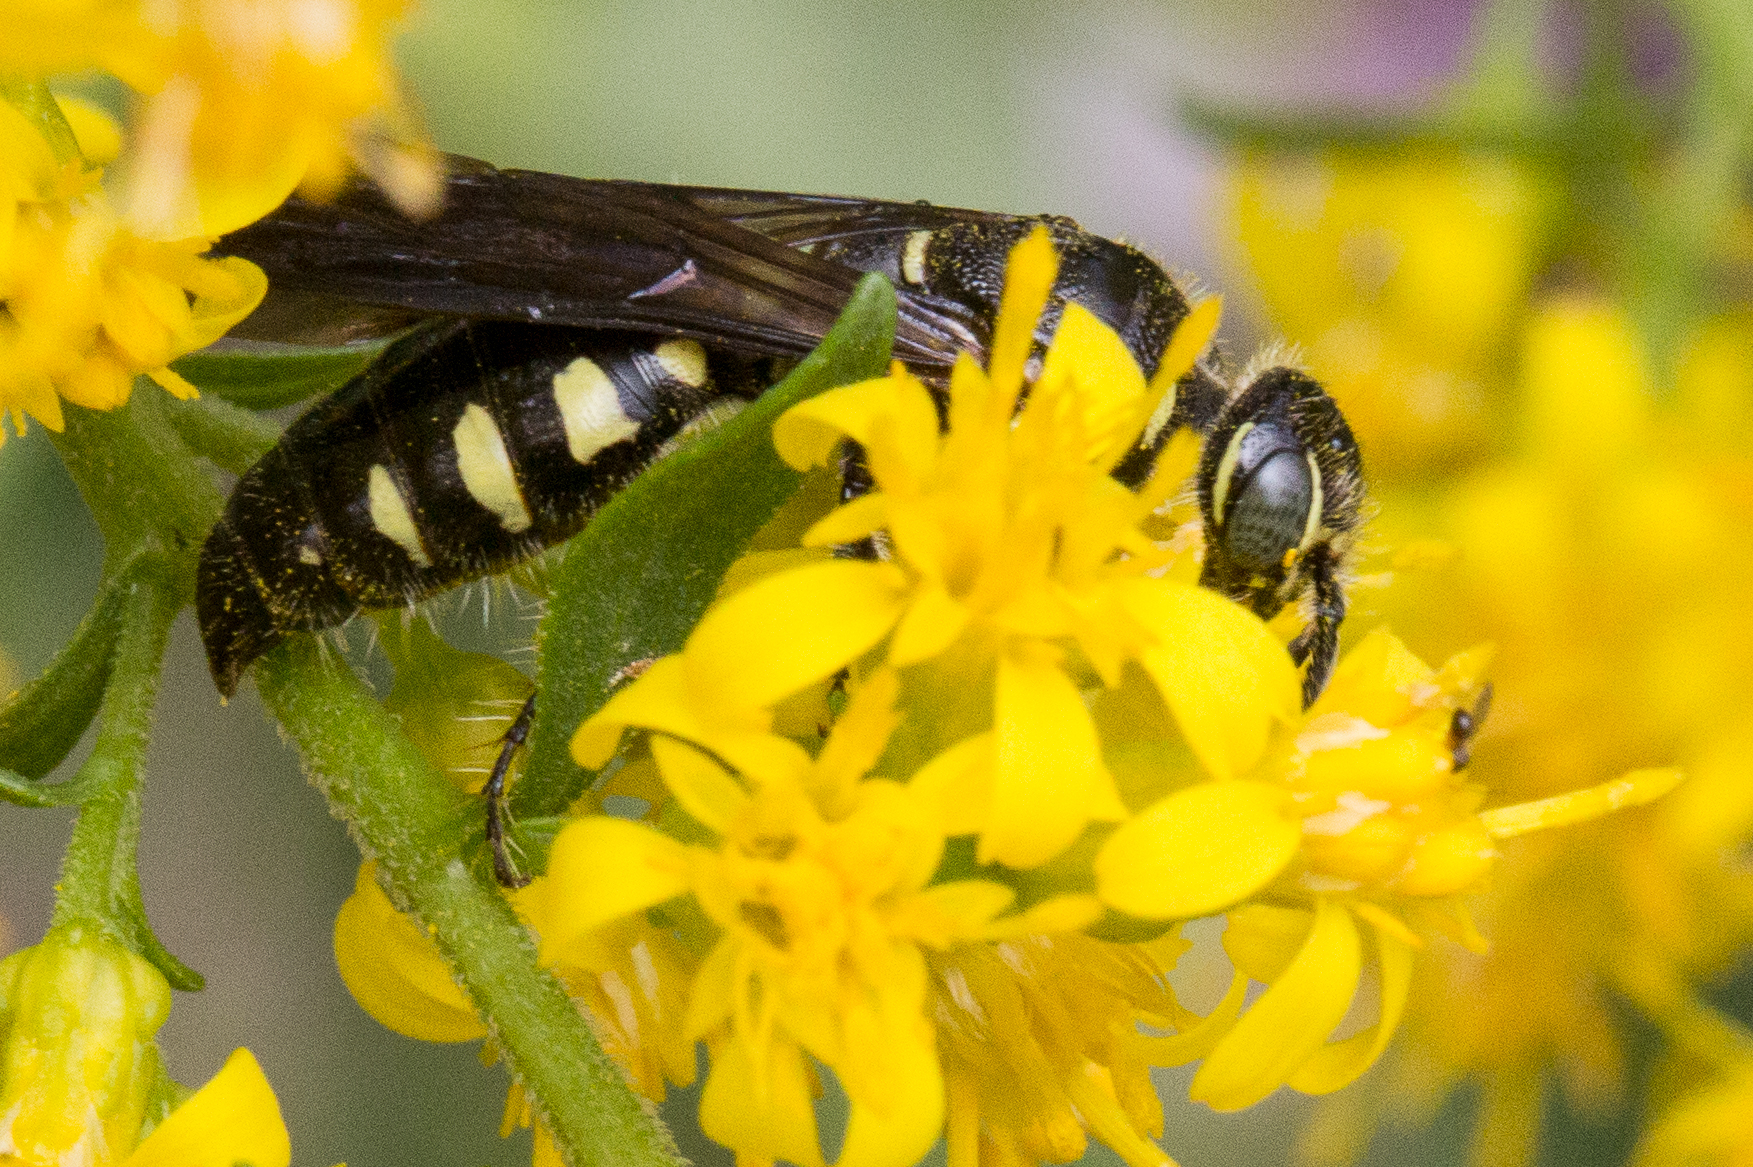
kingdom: Animalia
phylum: Arthropoda
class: Insecta
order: Hymenoptera
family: Tiphiidae
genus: Myzinum
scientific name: Myzinum obscurum
